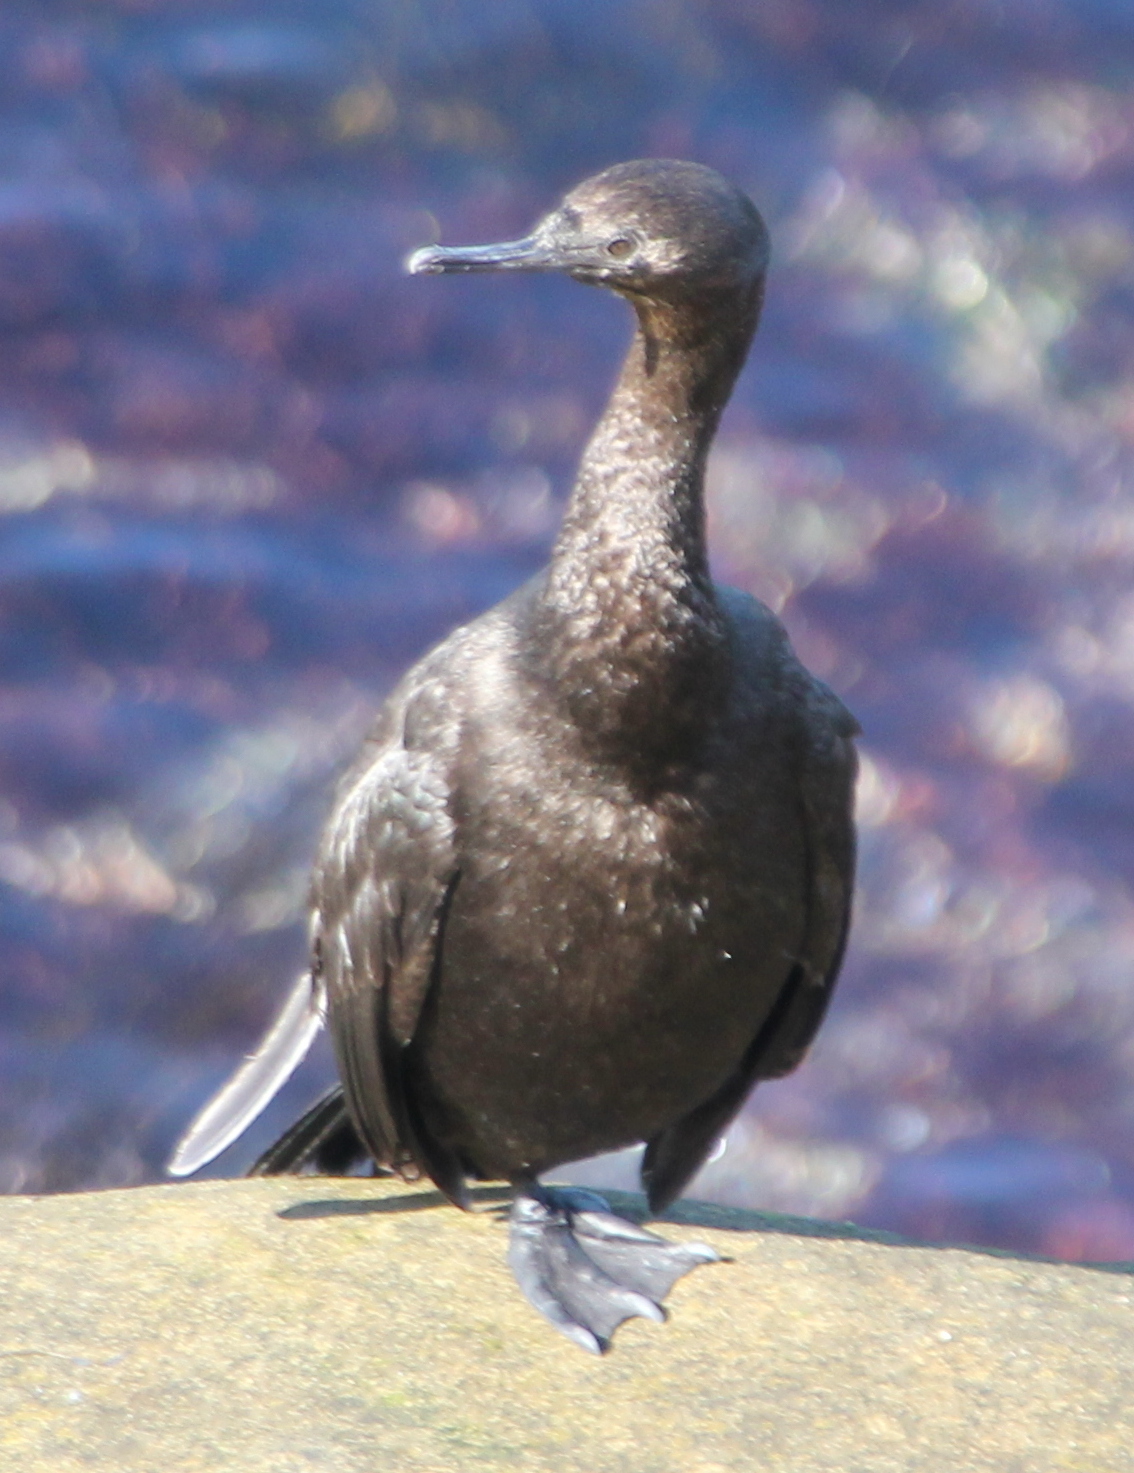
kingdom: Animalia
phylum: Chordata
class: Aves
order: Suliformes
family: Phalacrocoracidae
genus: Phalacrocorax
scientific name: Phalacrocorax pelagicus
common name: Pelagic cormorant
